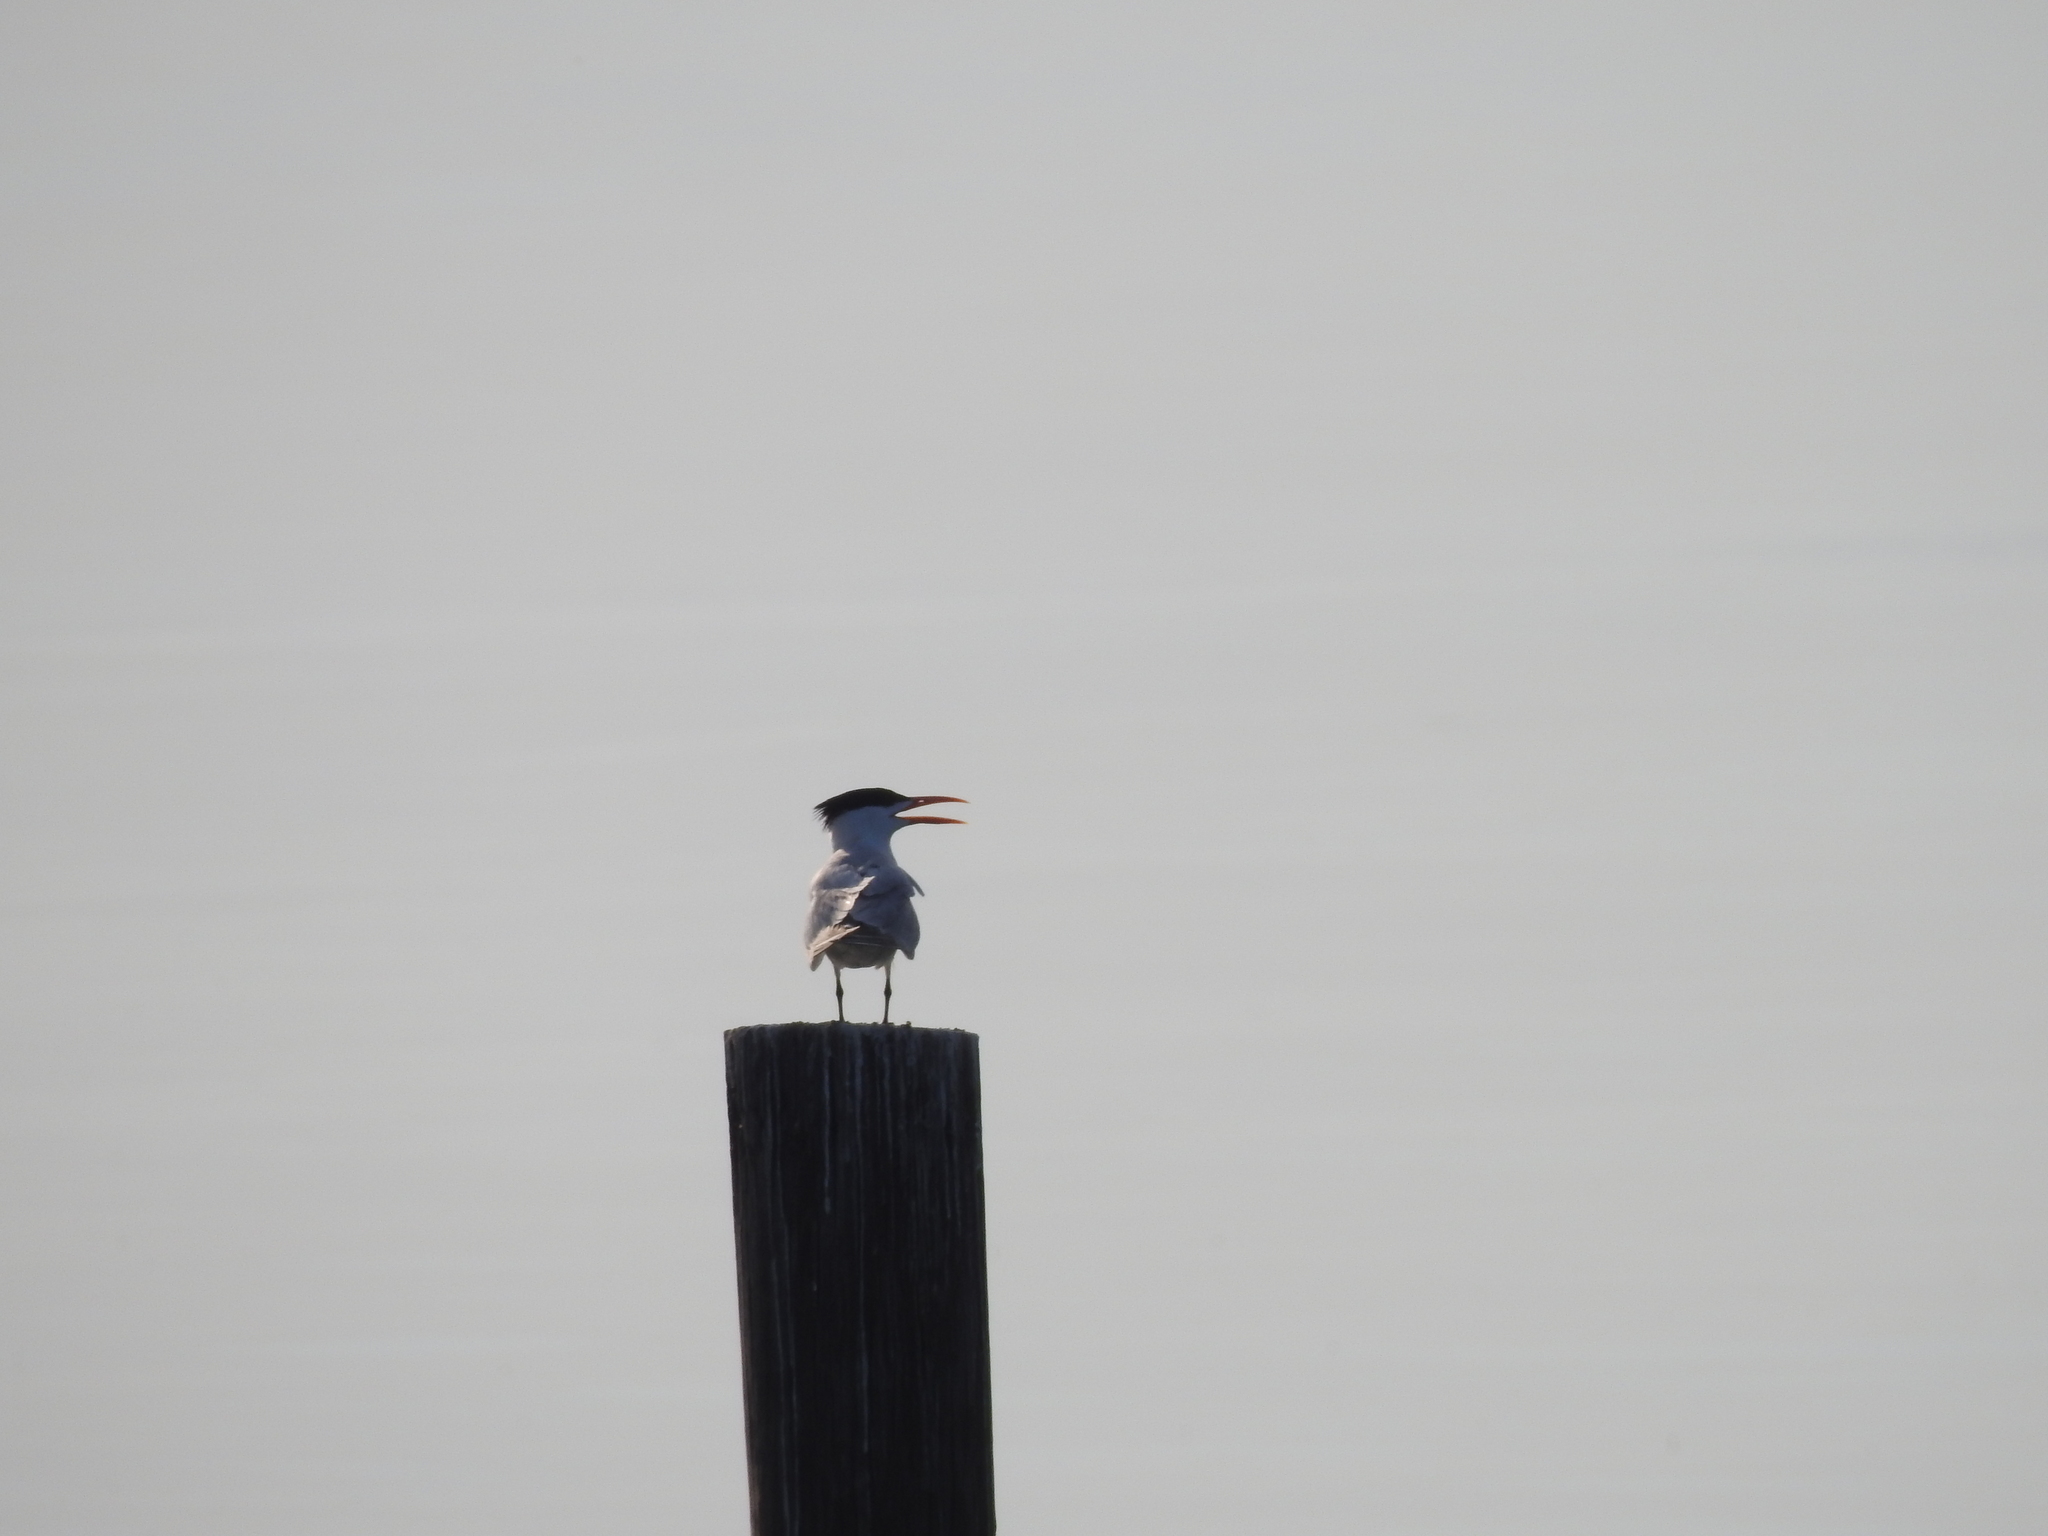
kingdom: Animalia
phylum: Chordata
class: Aves
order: Charadriiformes
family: Laridae
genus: Thalasseus
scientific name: Thalasseus maximus
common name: Royal tern
